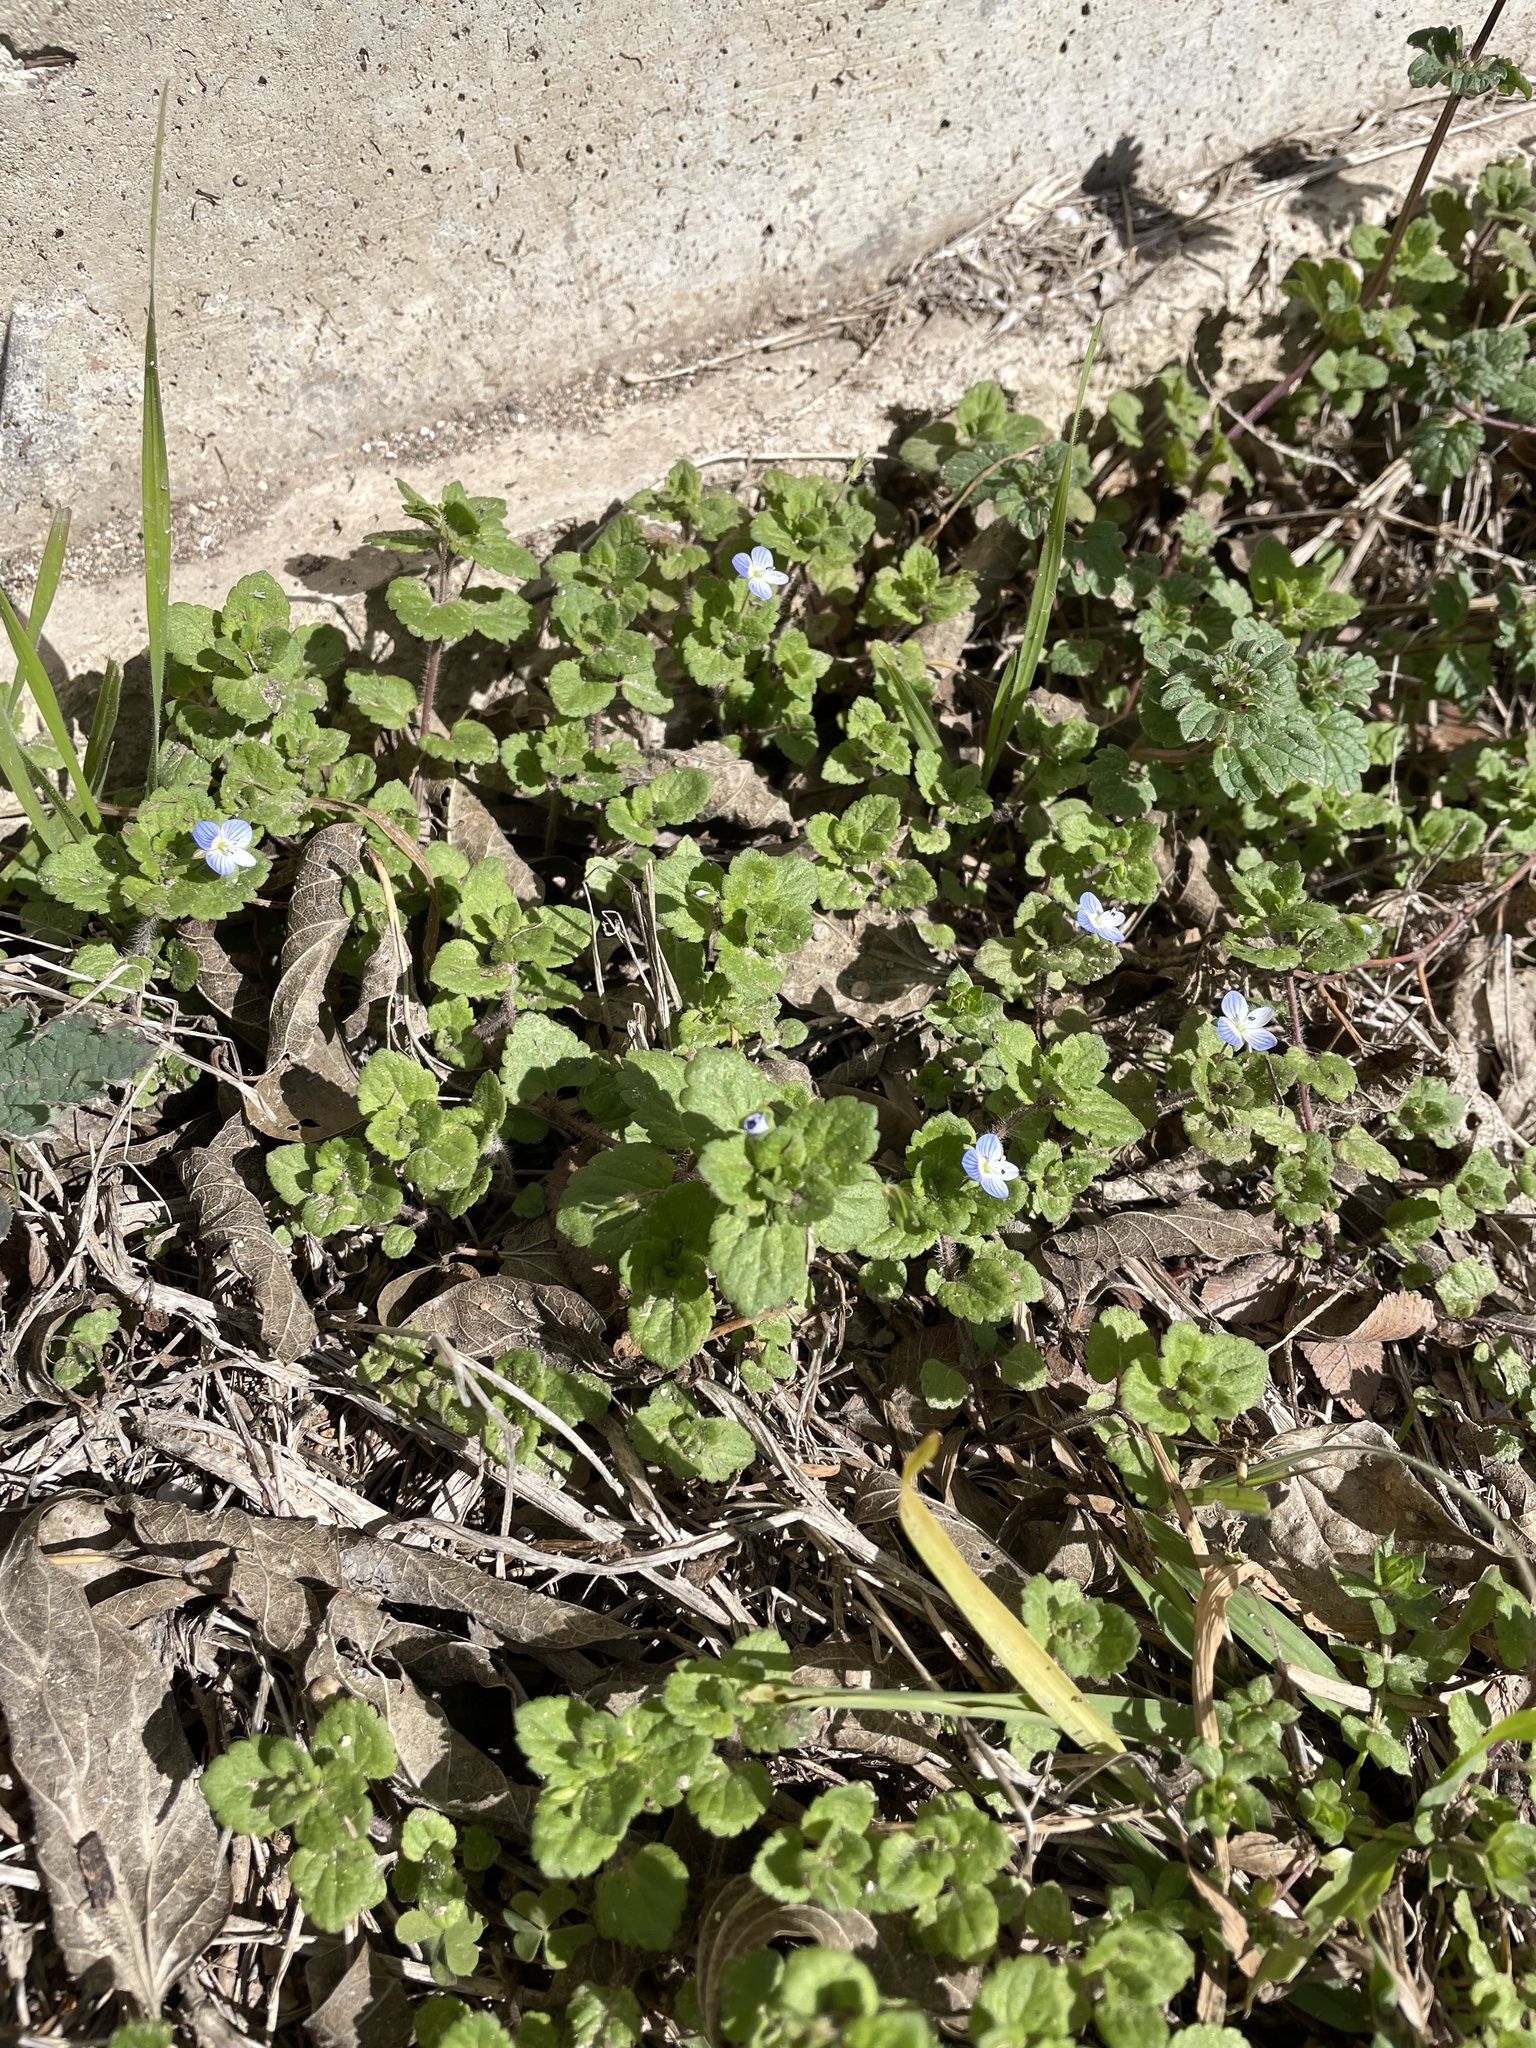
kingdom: Plantae
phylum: Tracheophyta
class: Magnoliopsida
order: Lamiales
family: Plantaginaceae
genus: Veronica
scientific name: Veronica persica
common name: Common field-speedwell
